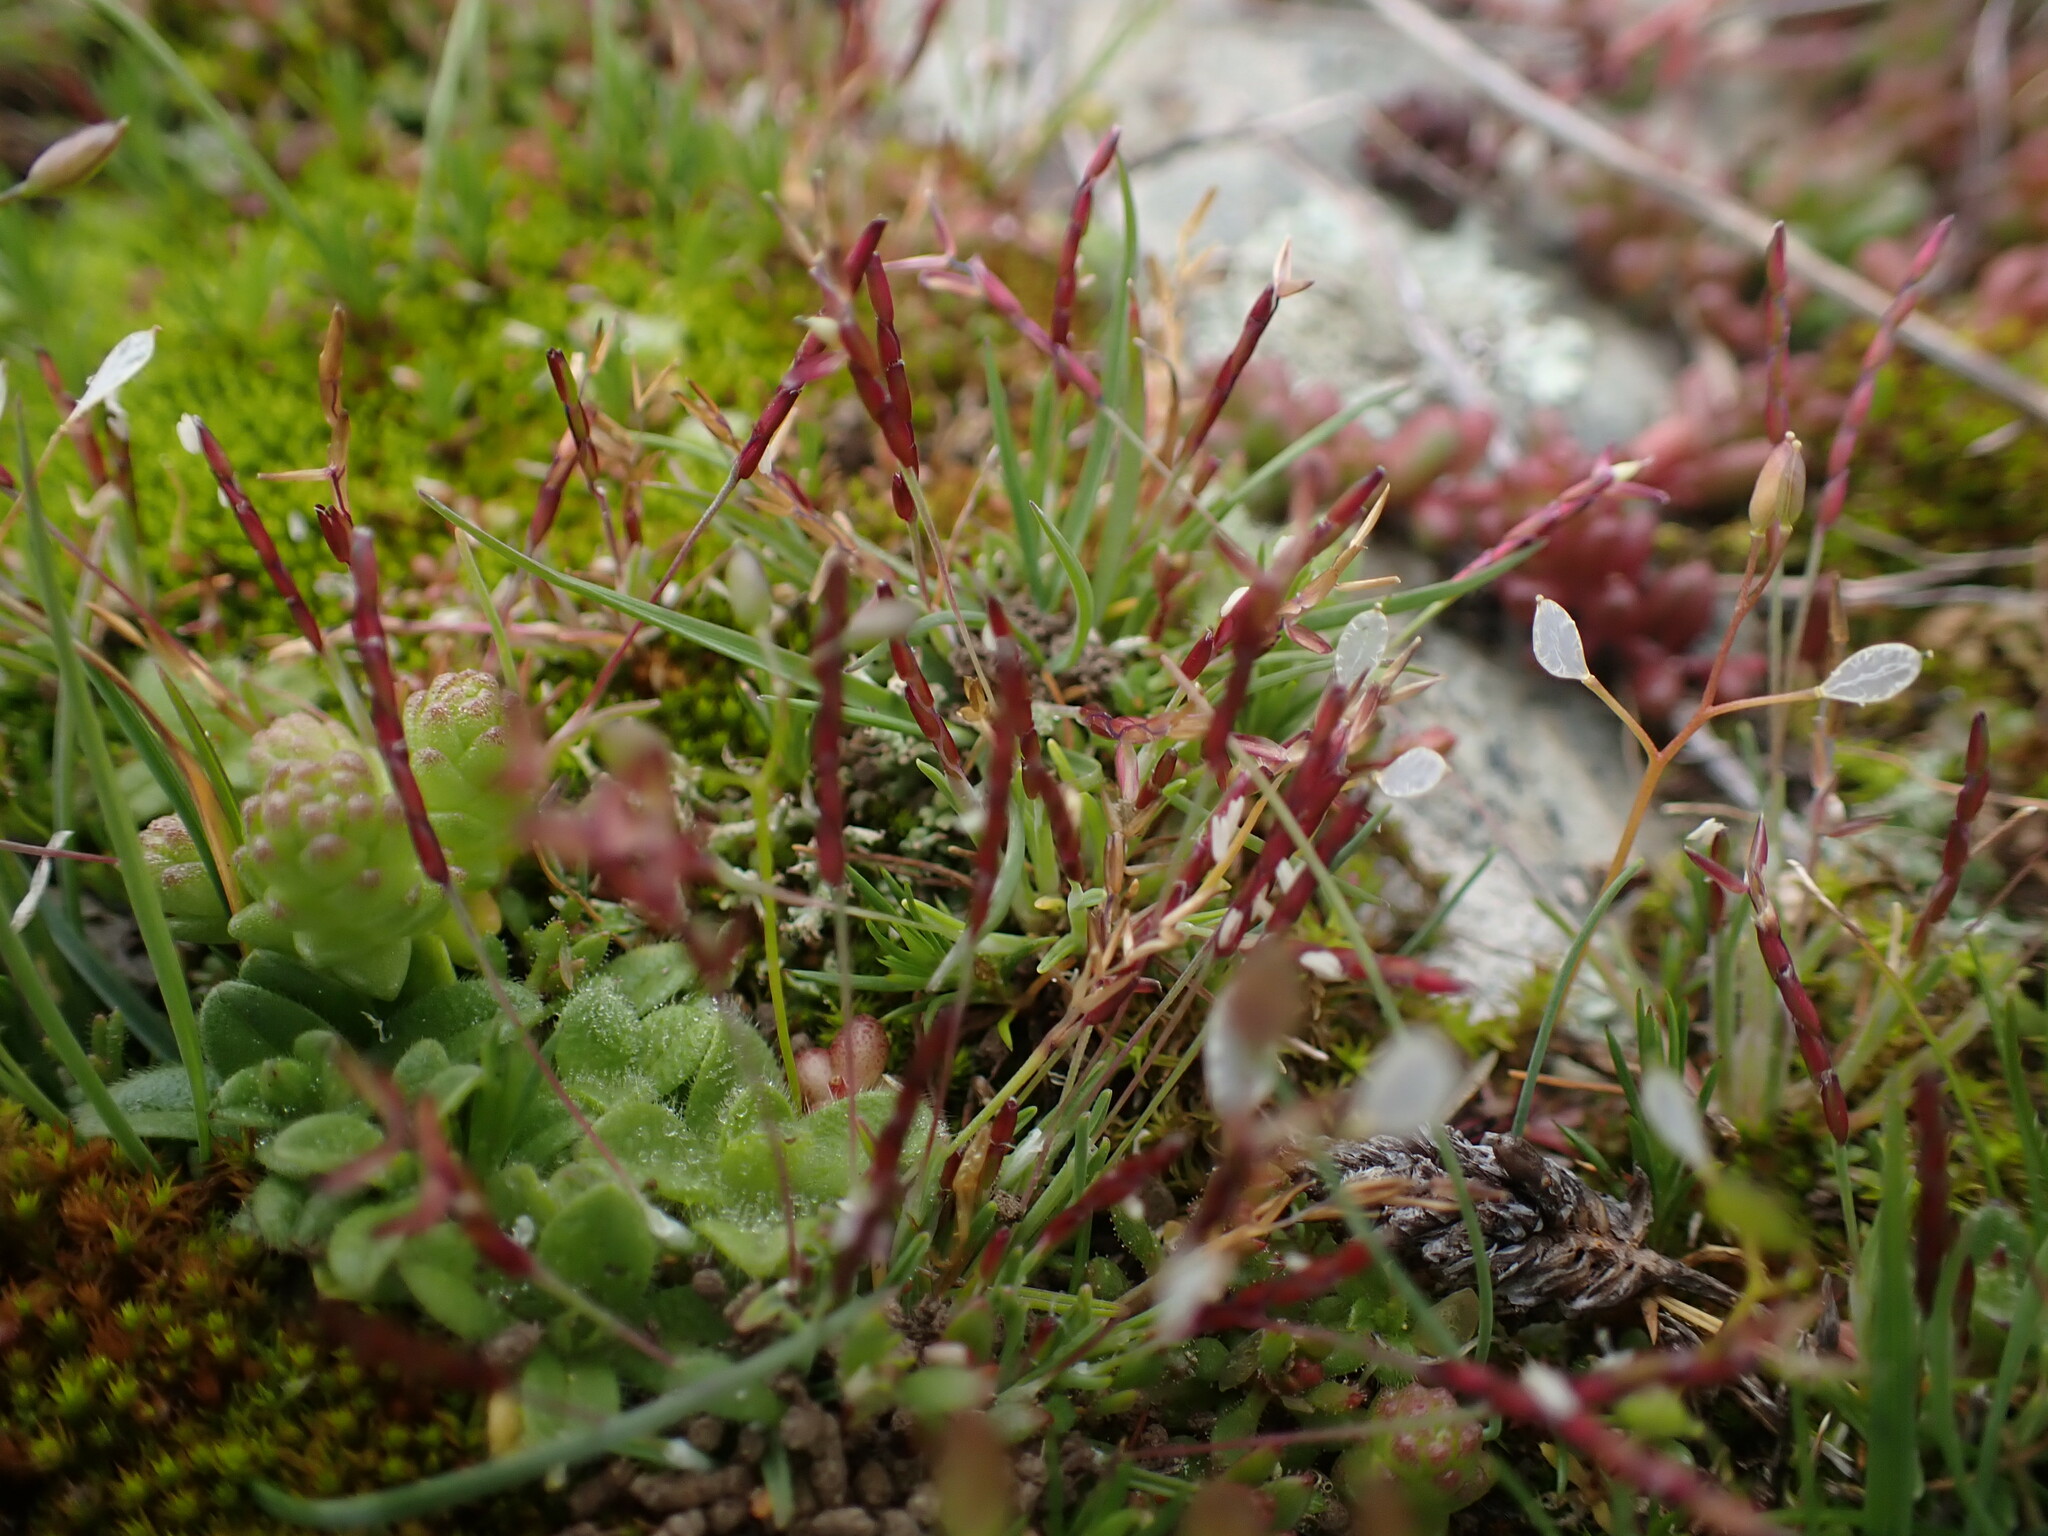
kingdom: Plantae
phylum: Tracheophyta
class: Liliopsida
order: Poales
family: Poaceae
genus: Mibora
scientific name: Mibora minima
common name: Early sand-grass
